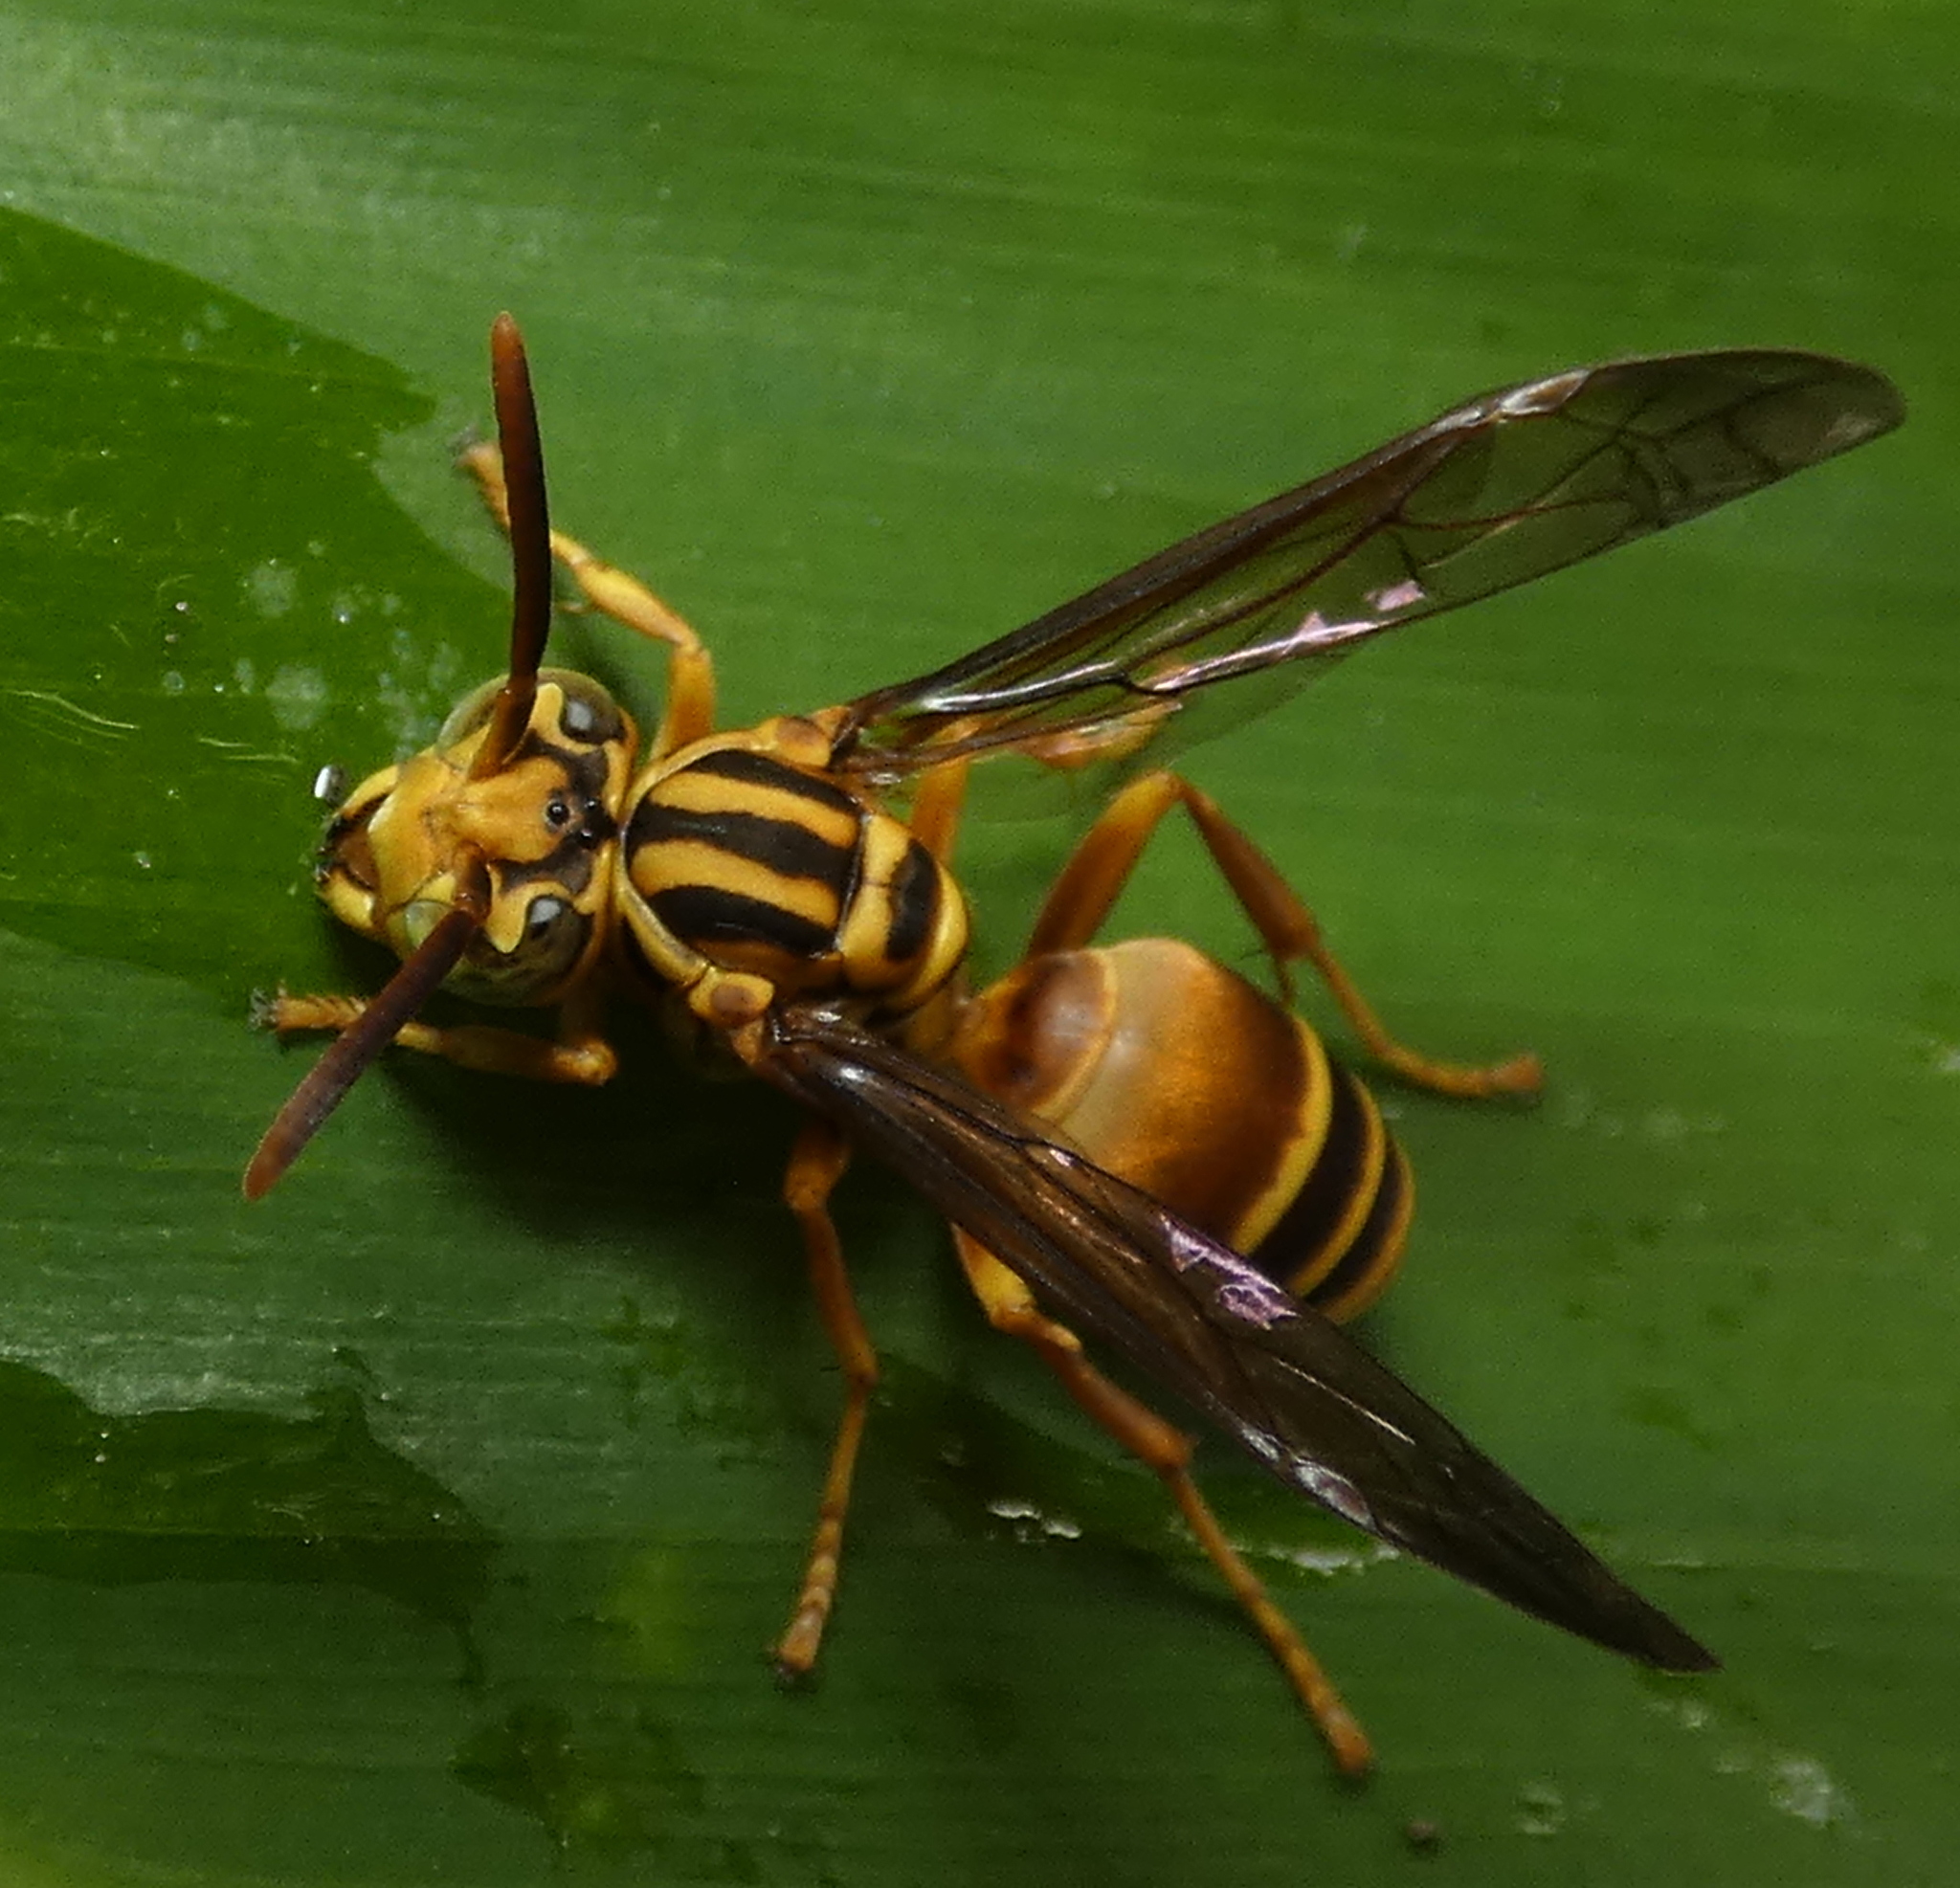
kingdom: Animalia
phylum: Arthropoda
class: Insecta
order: Hymenoptera
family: Vespidae
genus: Parachartergus
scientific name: Parachartergus vespiceps
